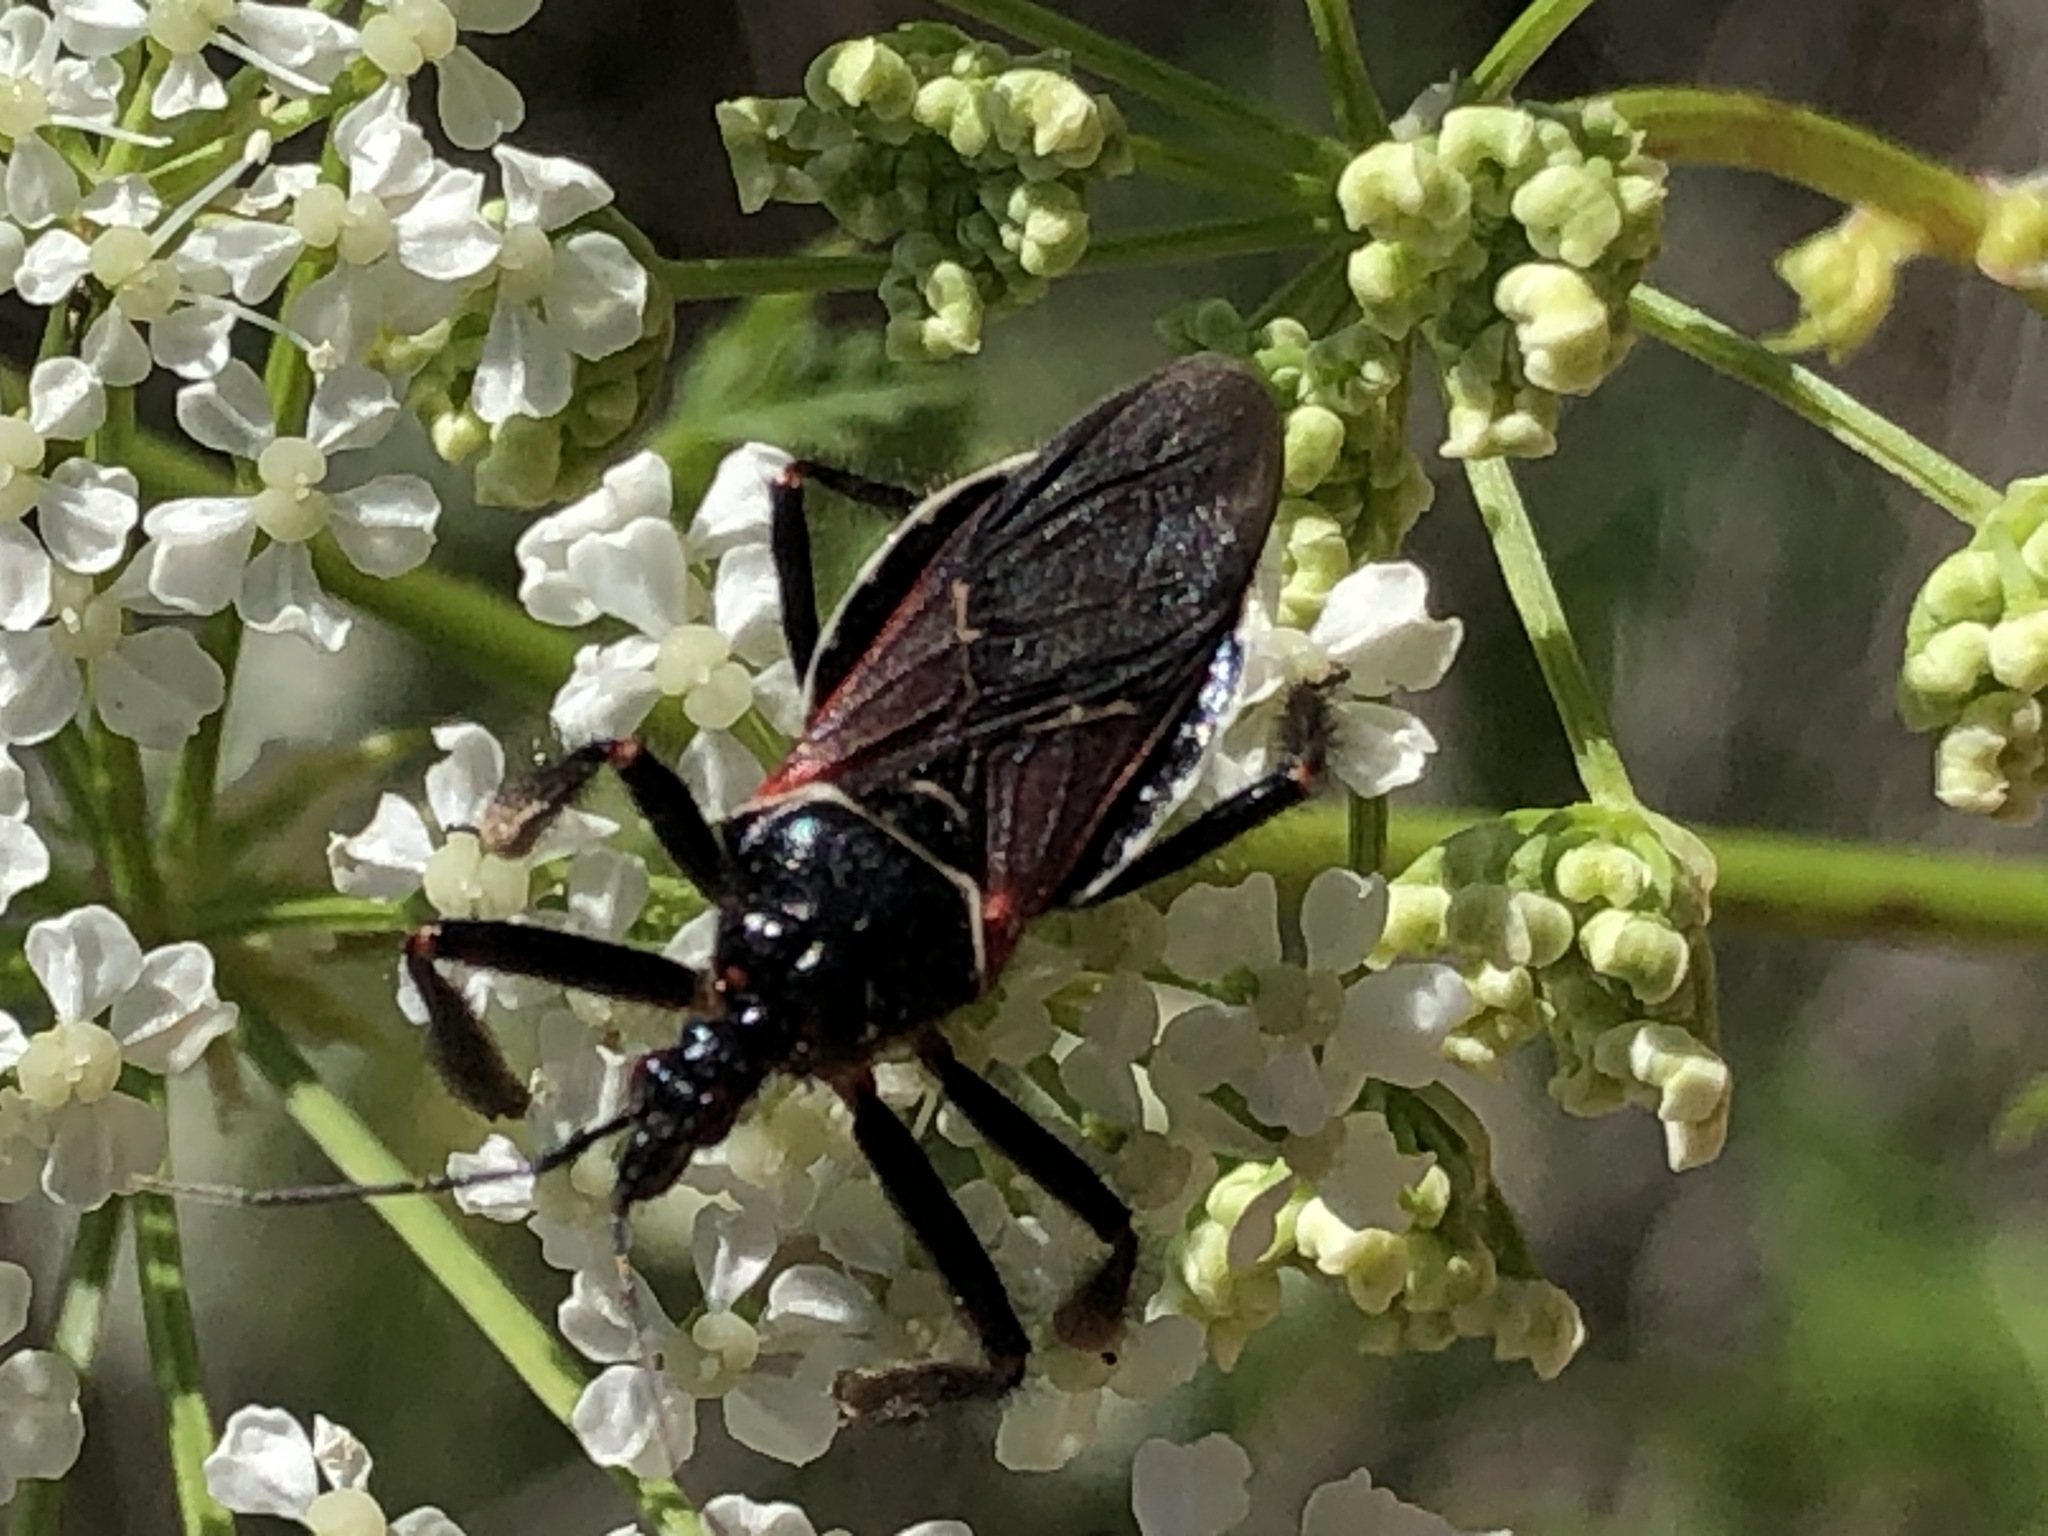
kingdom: Animalia
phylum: Arthropoda
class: Insecta
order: Hemiptera
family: Reduviidae
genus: Apiomerus
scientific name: Apiomerus californicus
